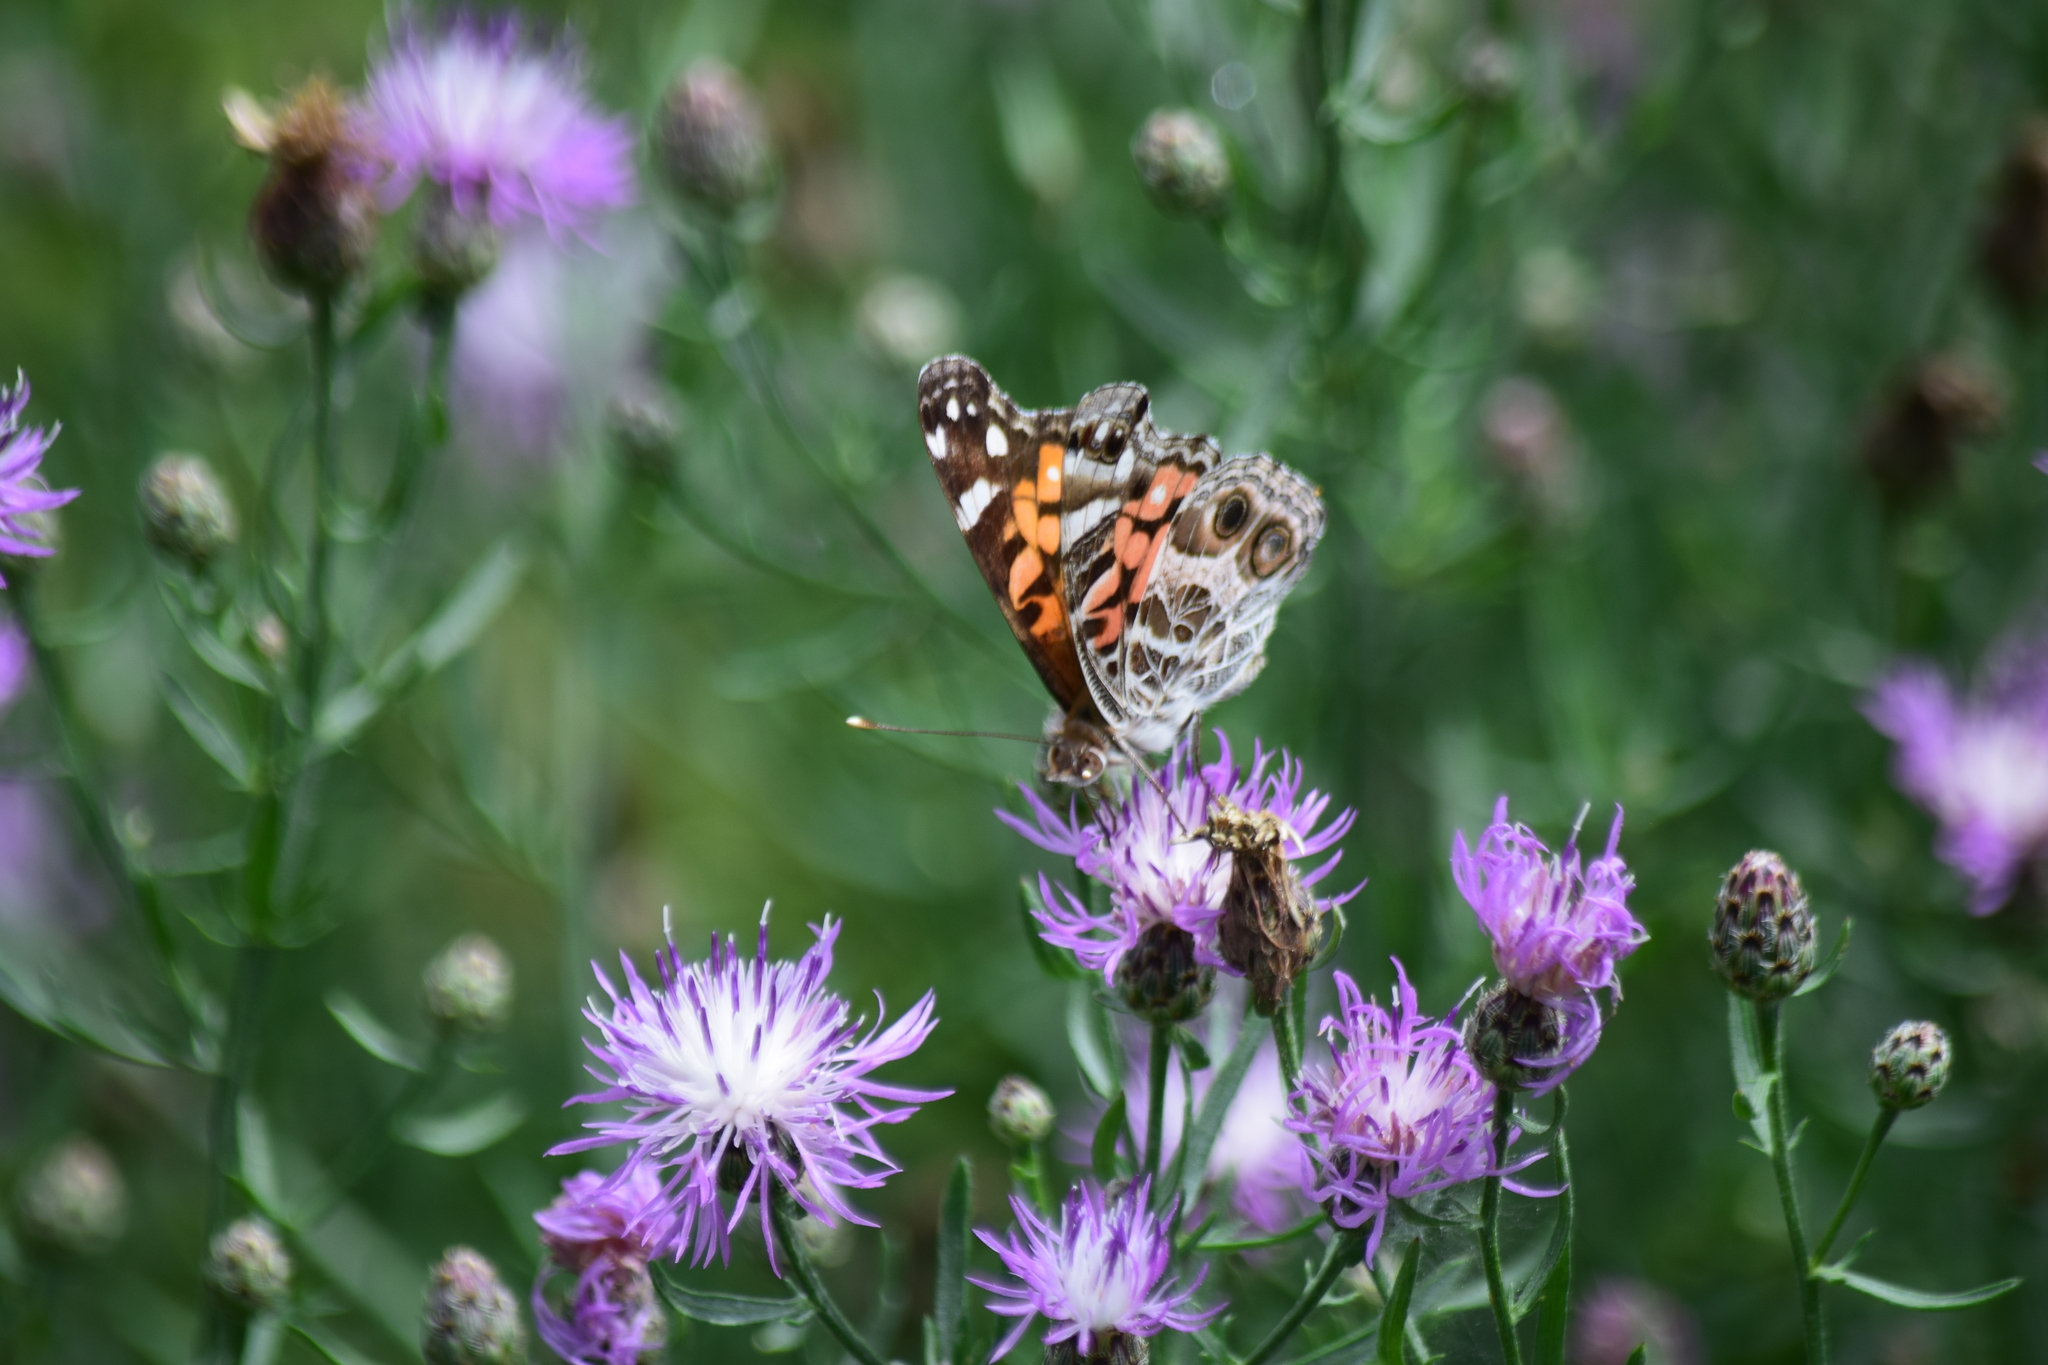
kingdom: Animalia
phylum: Arthropoda
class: Insecta
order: Lepidoptera
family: Nymphalidae
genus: Vanessa
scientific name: Vanessa virginiensis
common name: American lady
